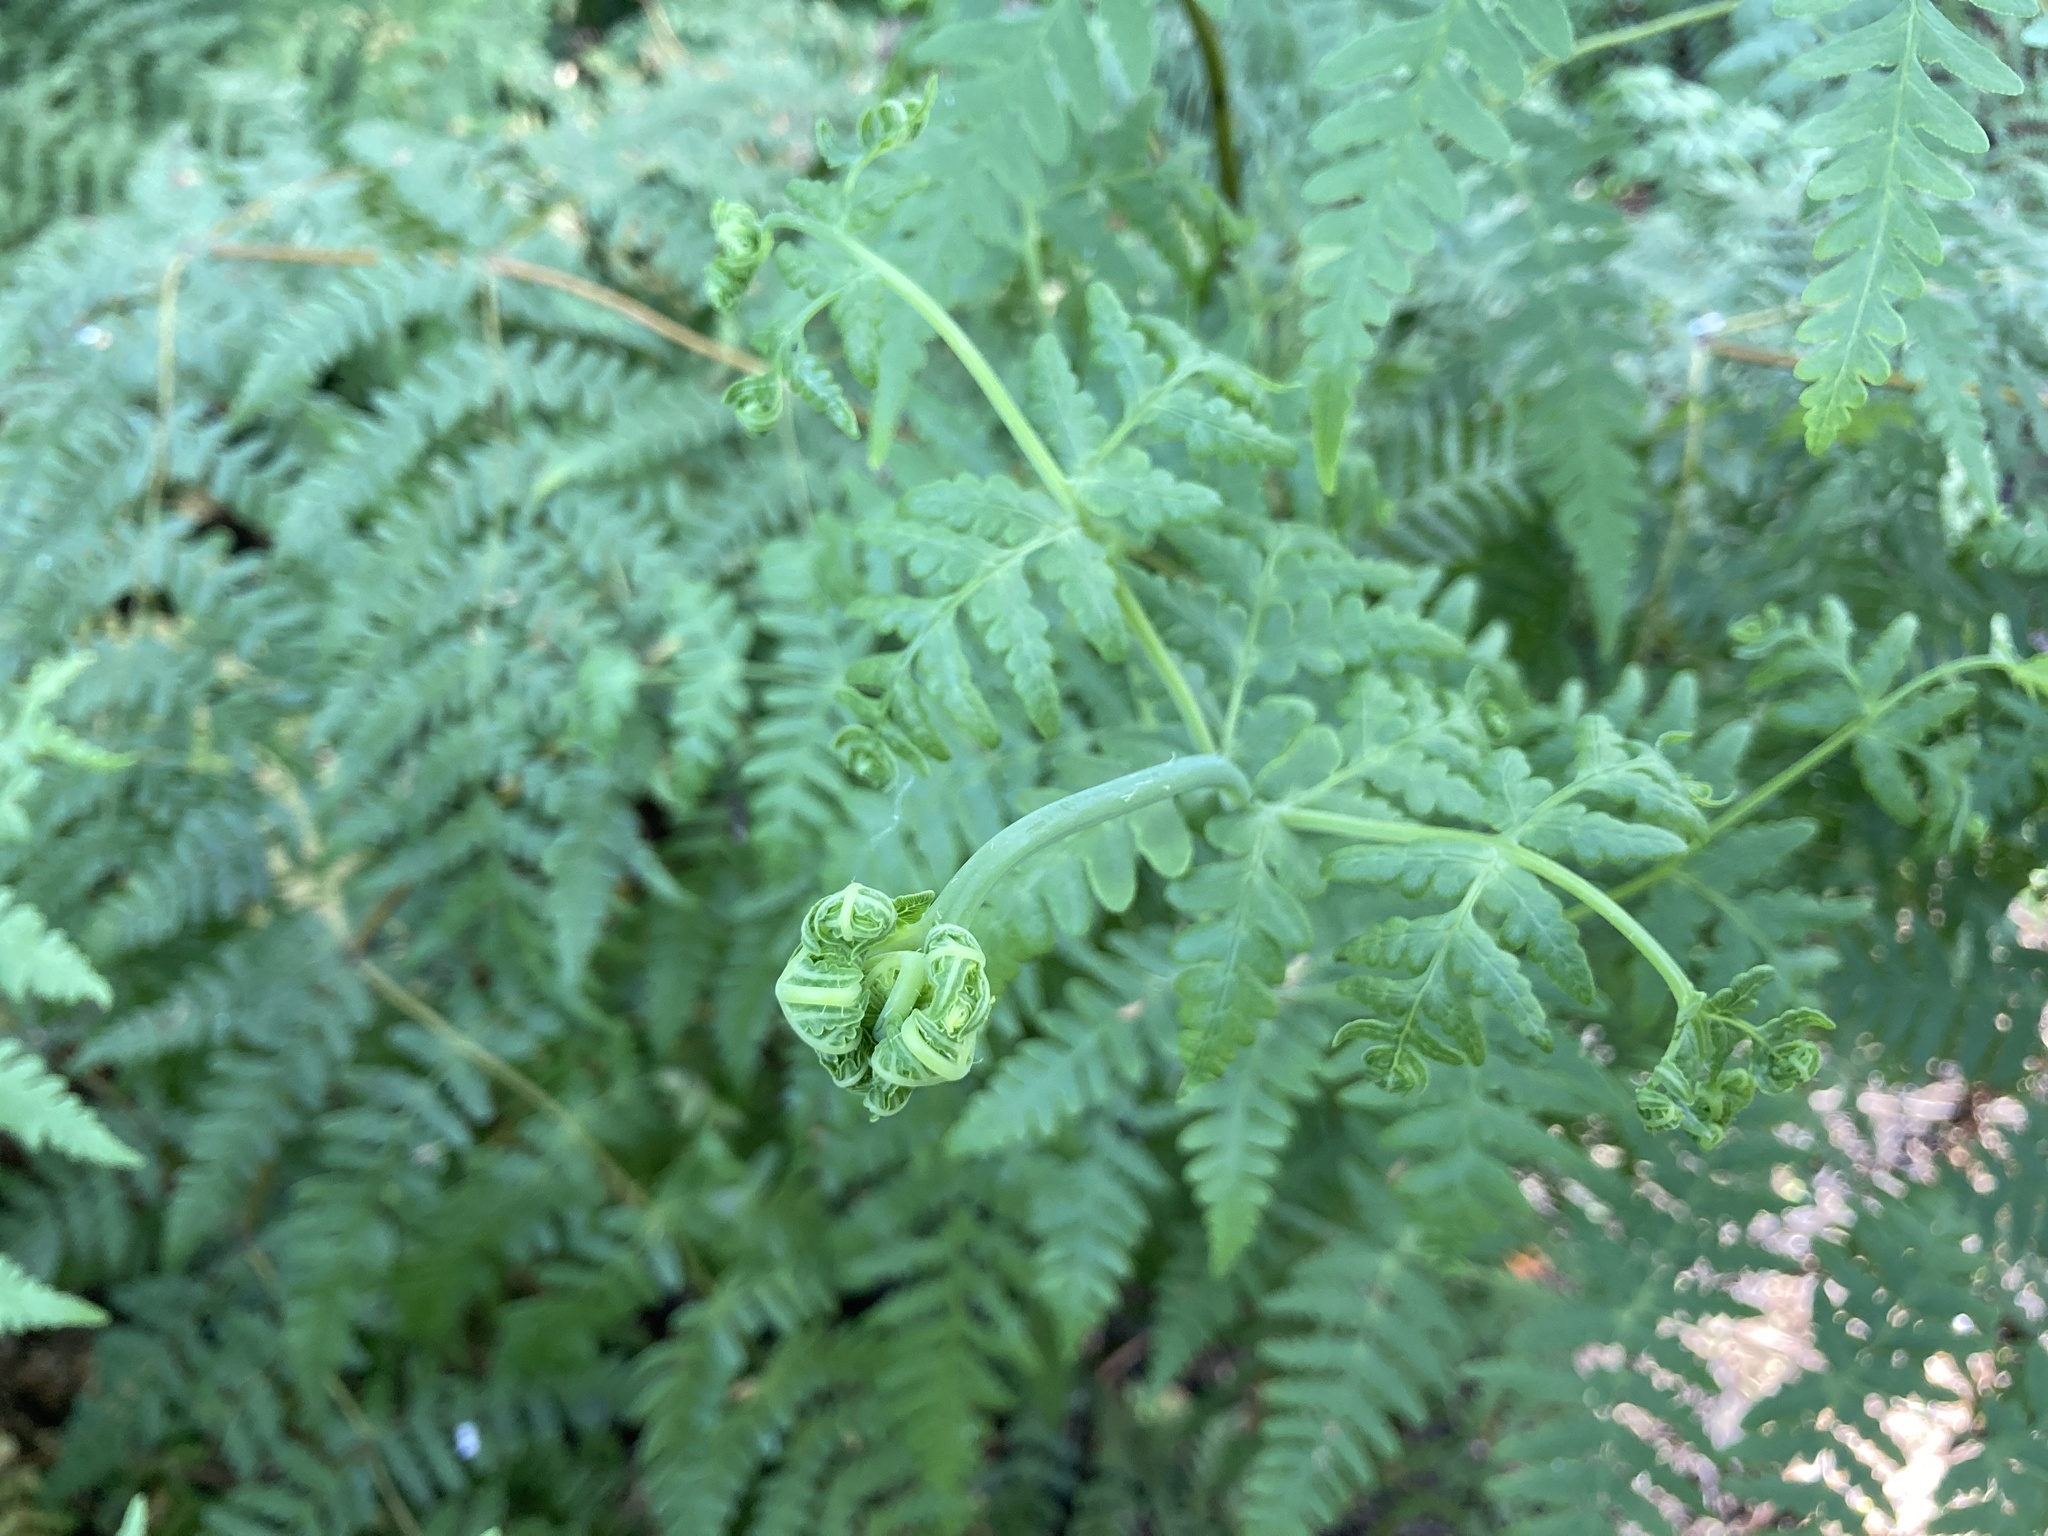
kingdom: Plantae
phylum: Tracheophyta
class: Polypodiopsida
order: Polypodiales
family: Dennstaedtiaceae
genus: Histiopteris
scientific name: Histiopteris incisa
